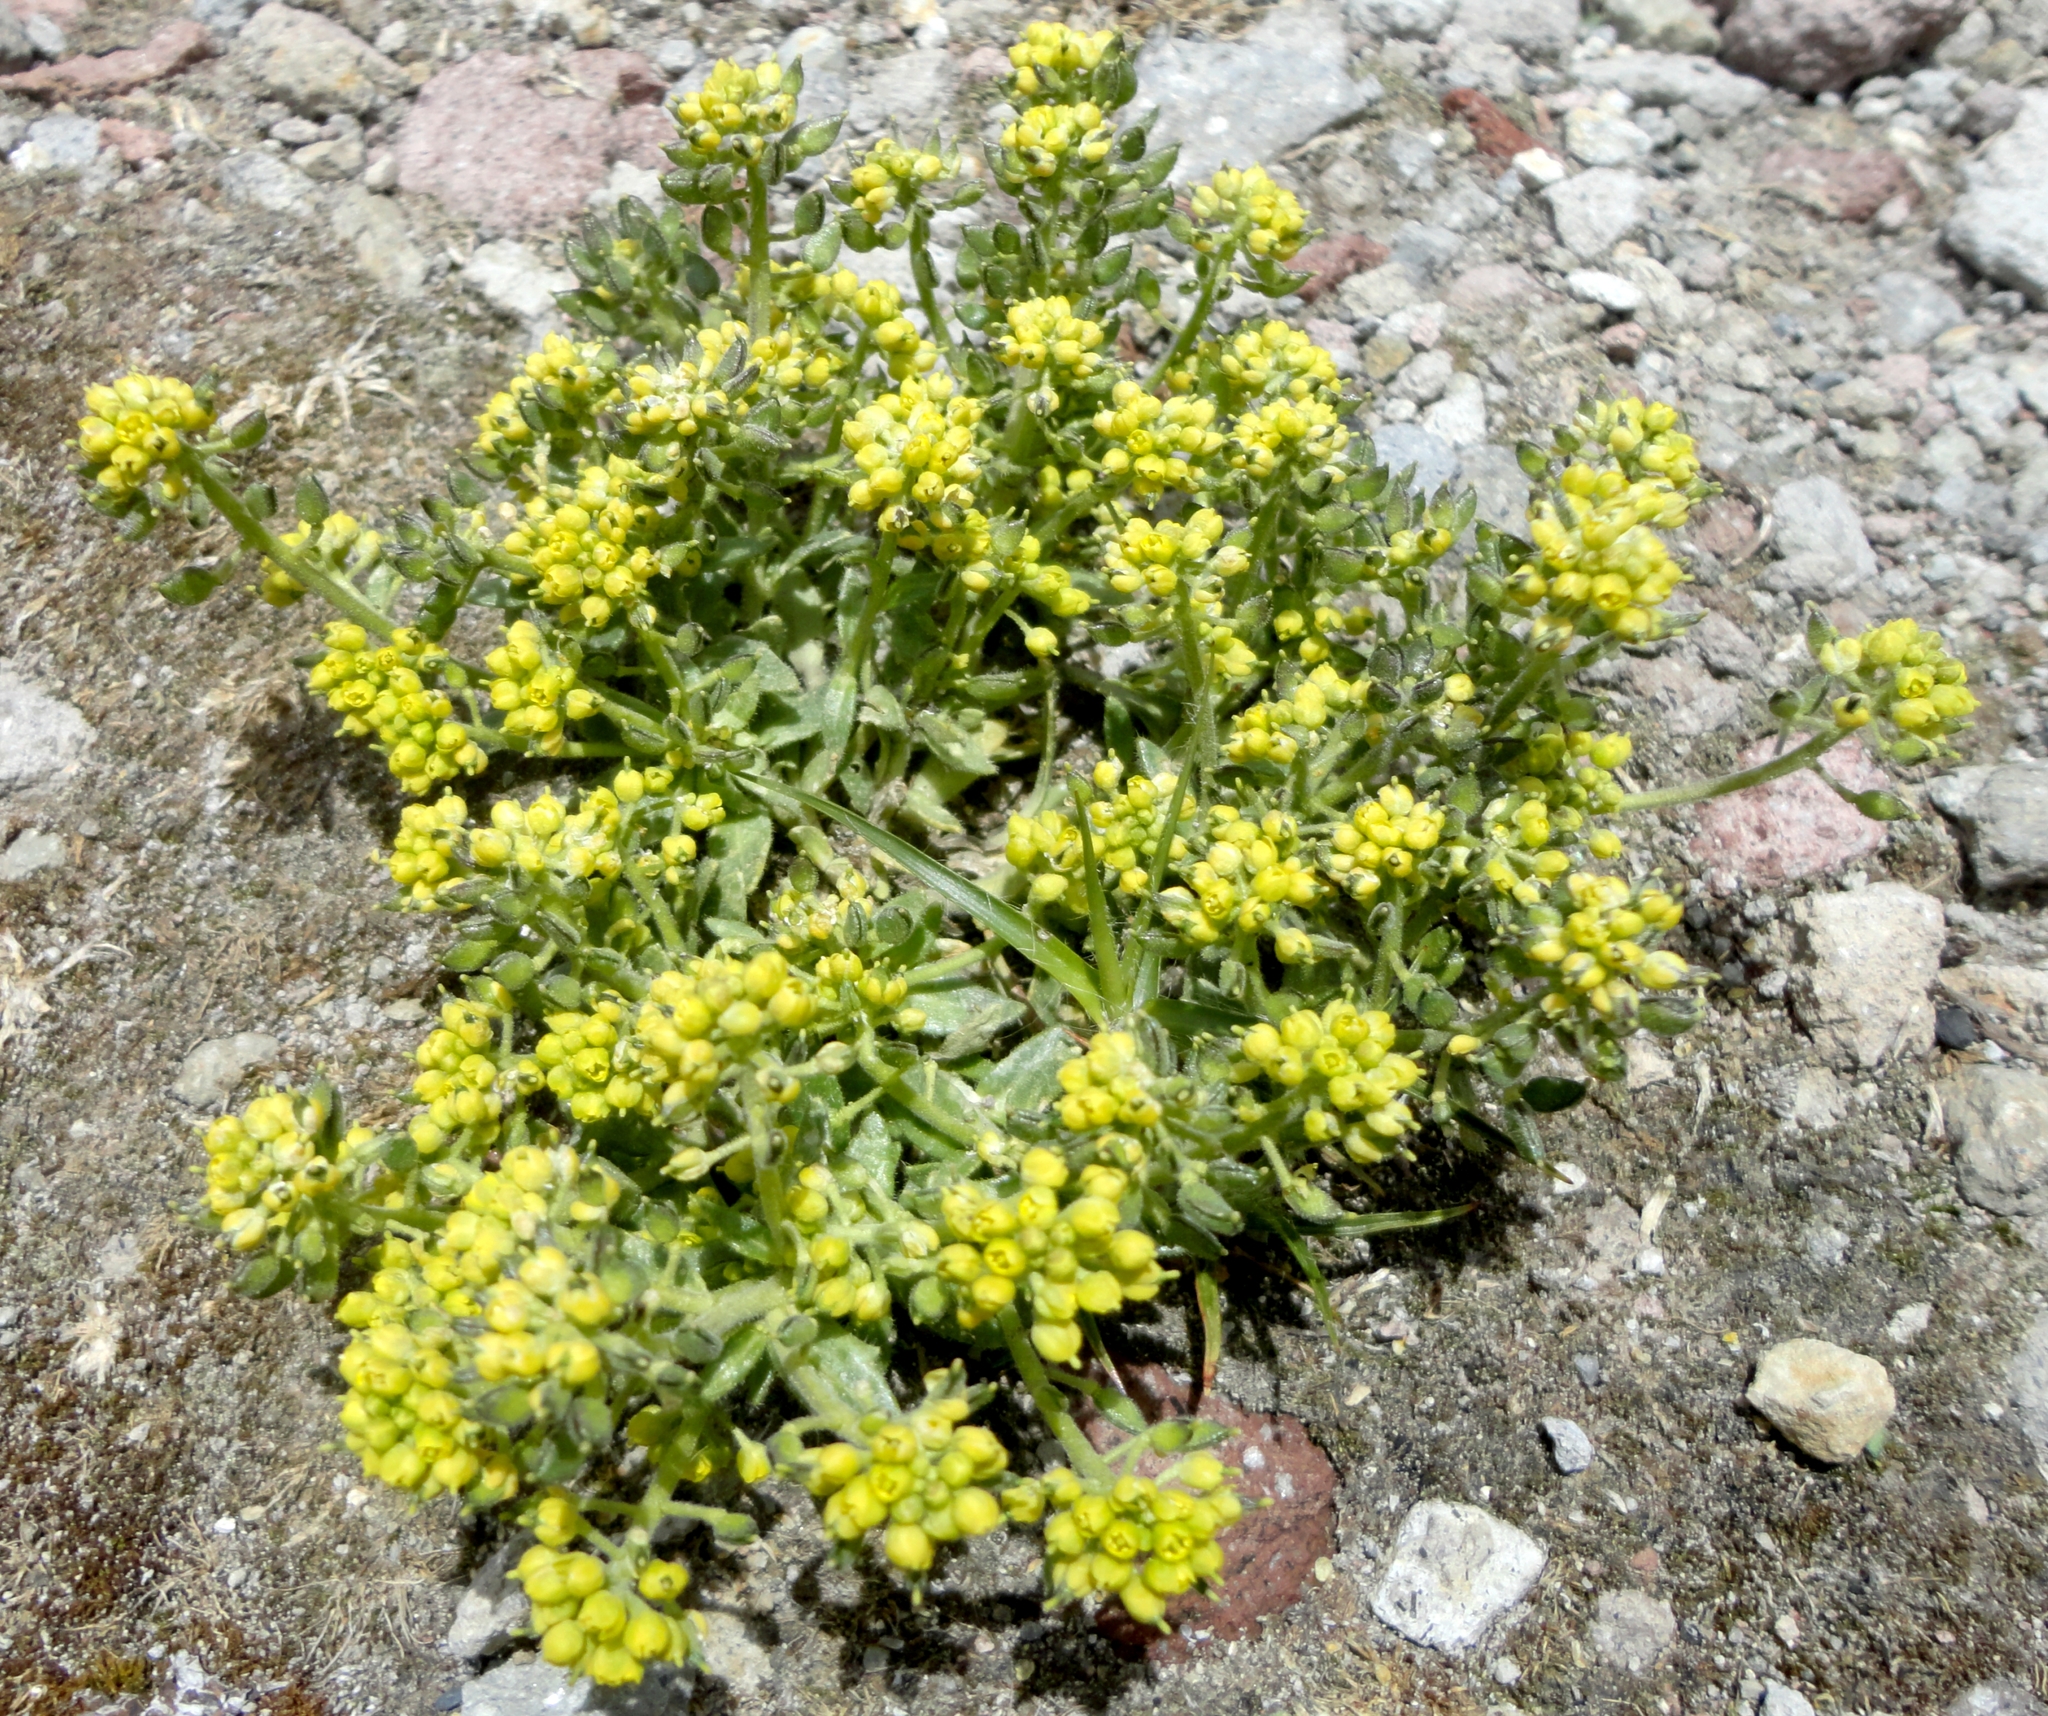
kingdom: Plantae
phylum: Tracheophyta
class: Magnoliopsida
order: Brassicales
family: Brassicaceae
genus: Draba
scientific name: Draba nivicola
